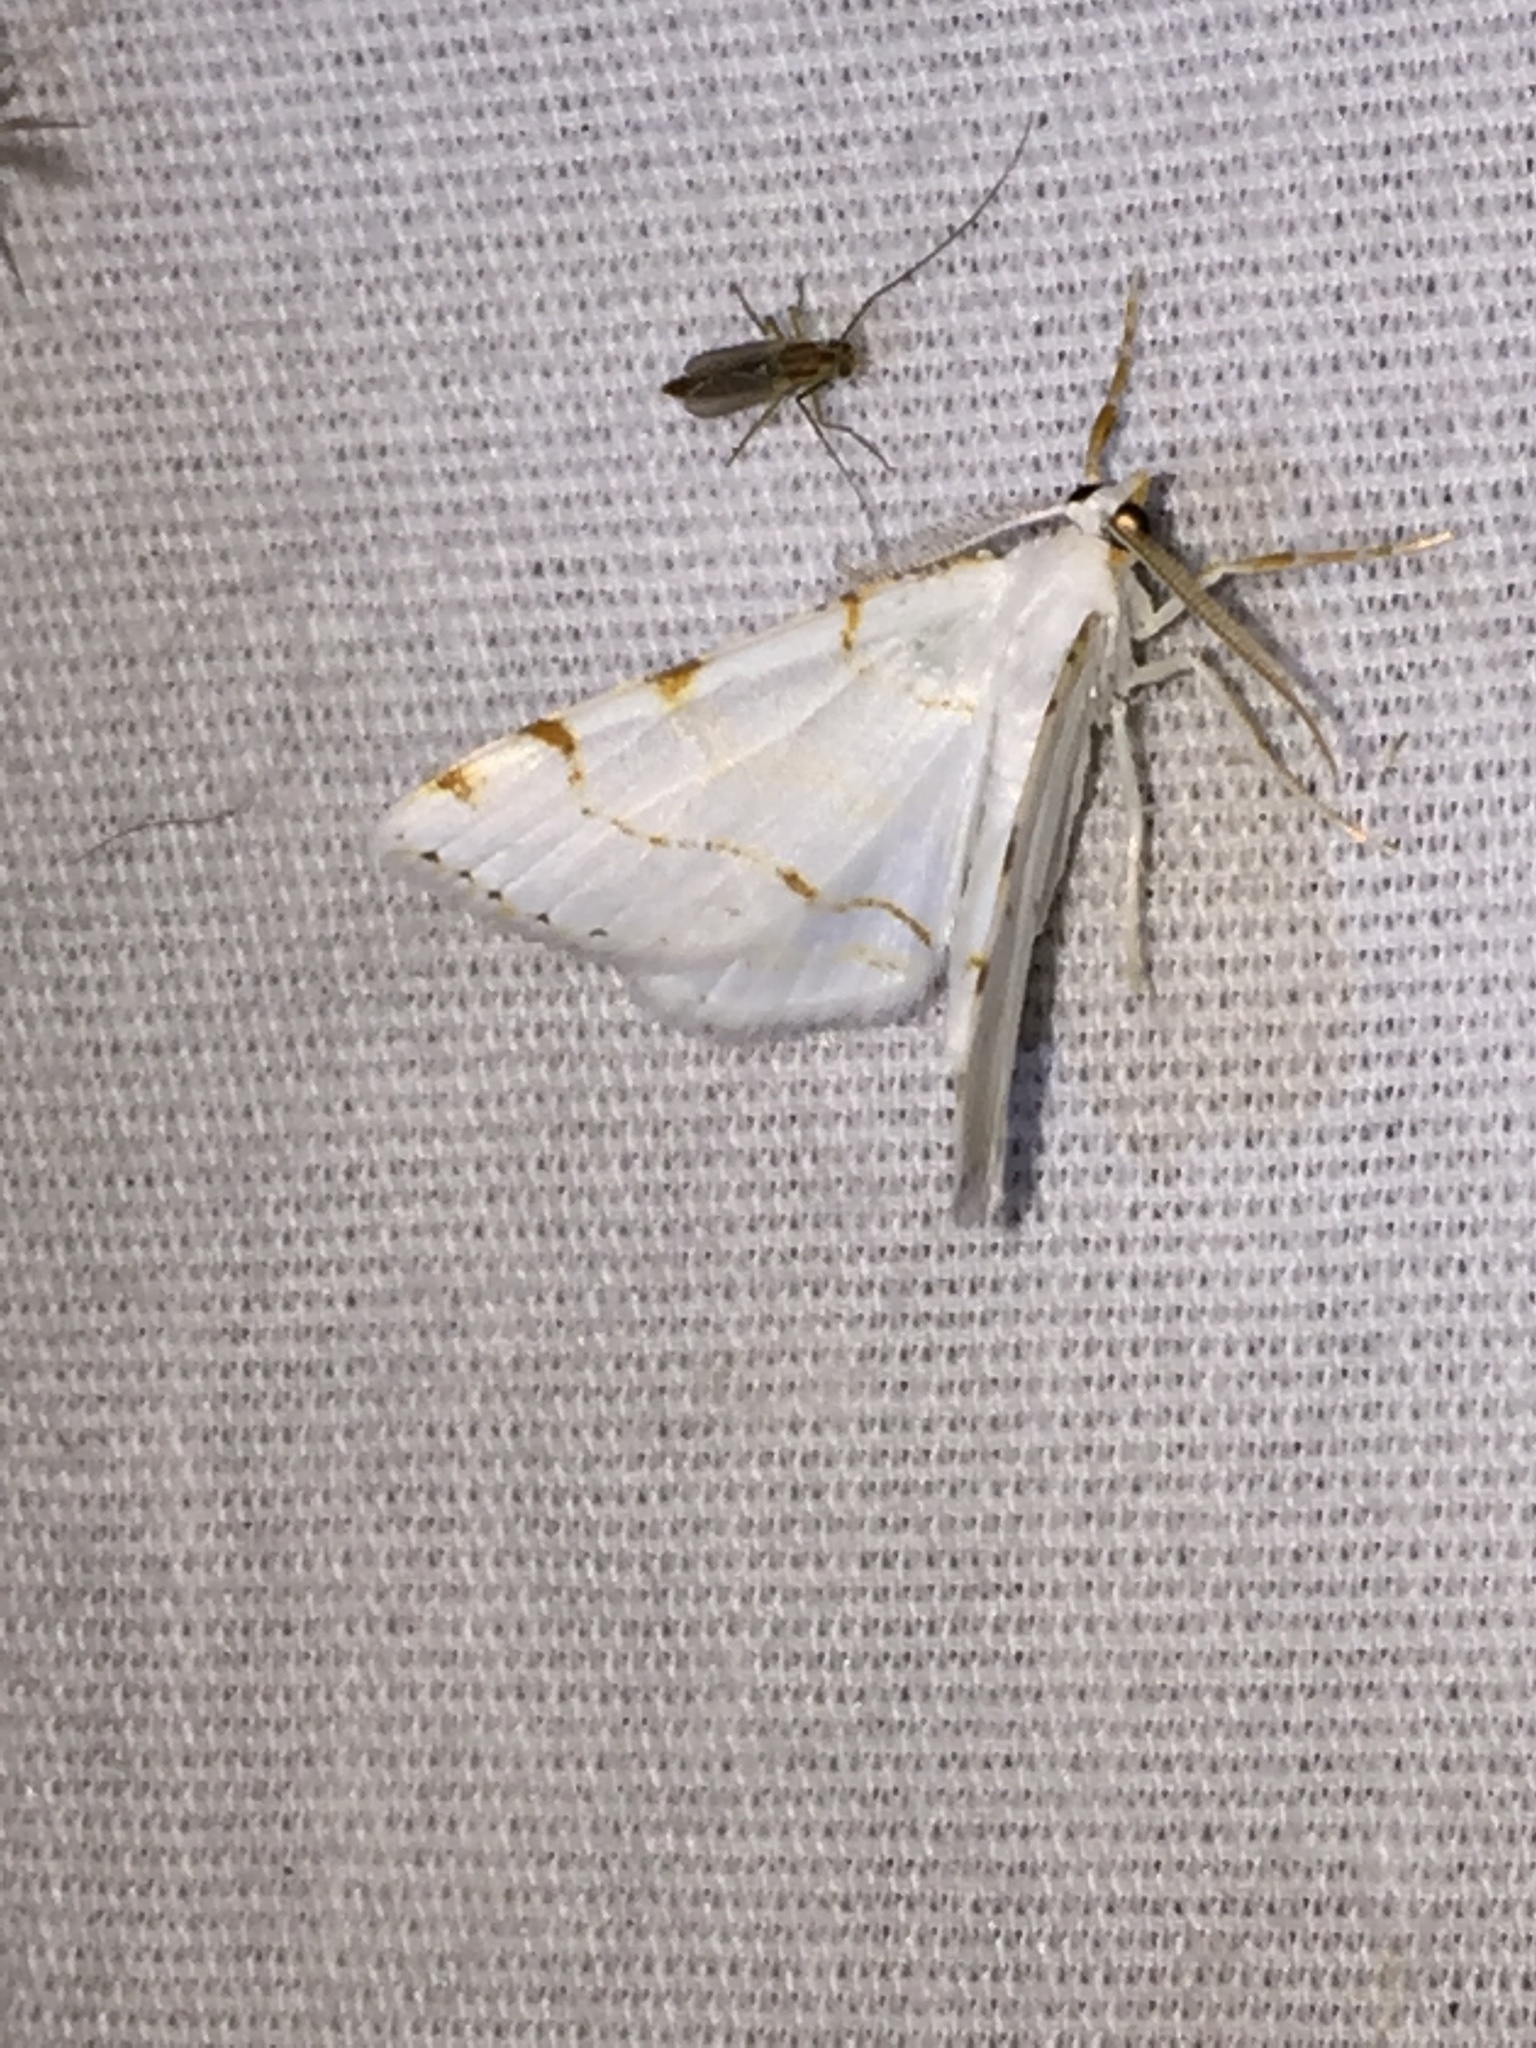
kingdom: Animalia
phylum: Arthropoda
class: Insecta
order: Lepidoptera
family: Geometridae
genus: Macaria
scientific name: Macaria pustularia
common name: Lesser maple spanworm moth
